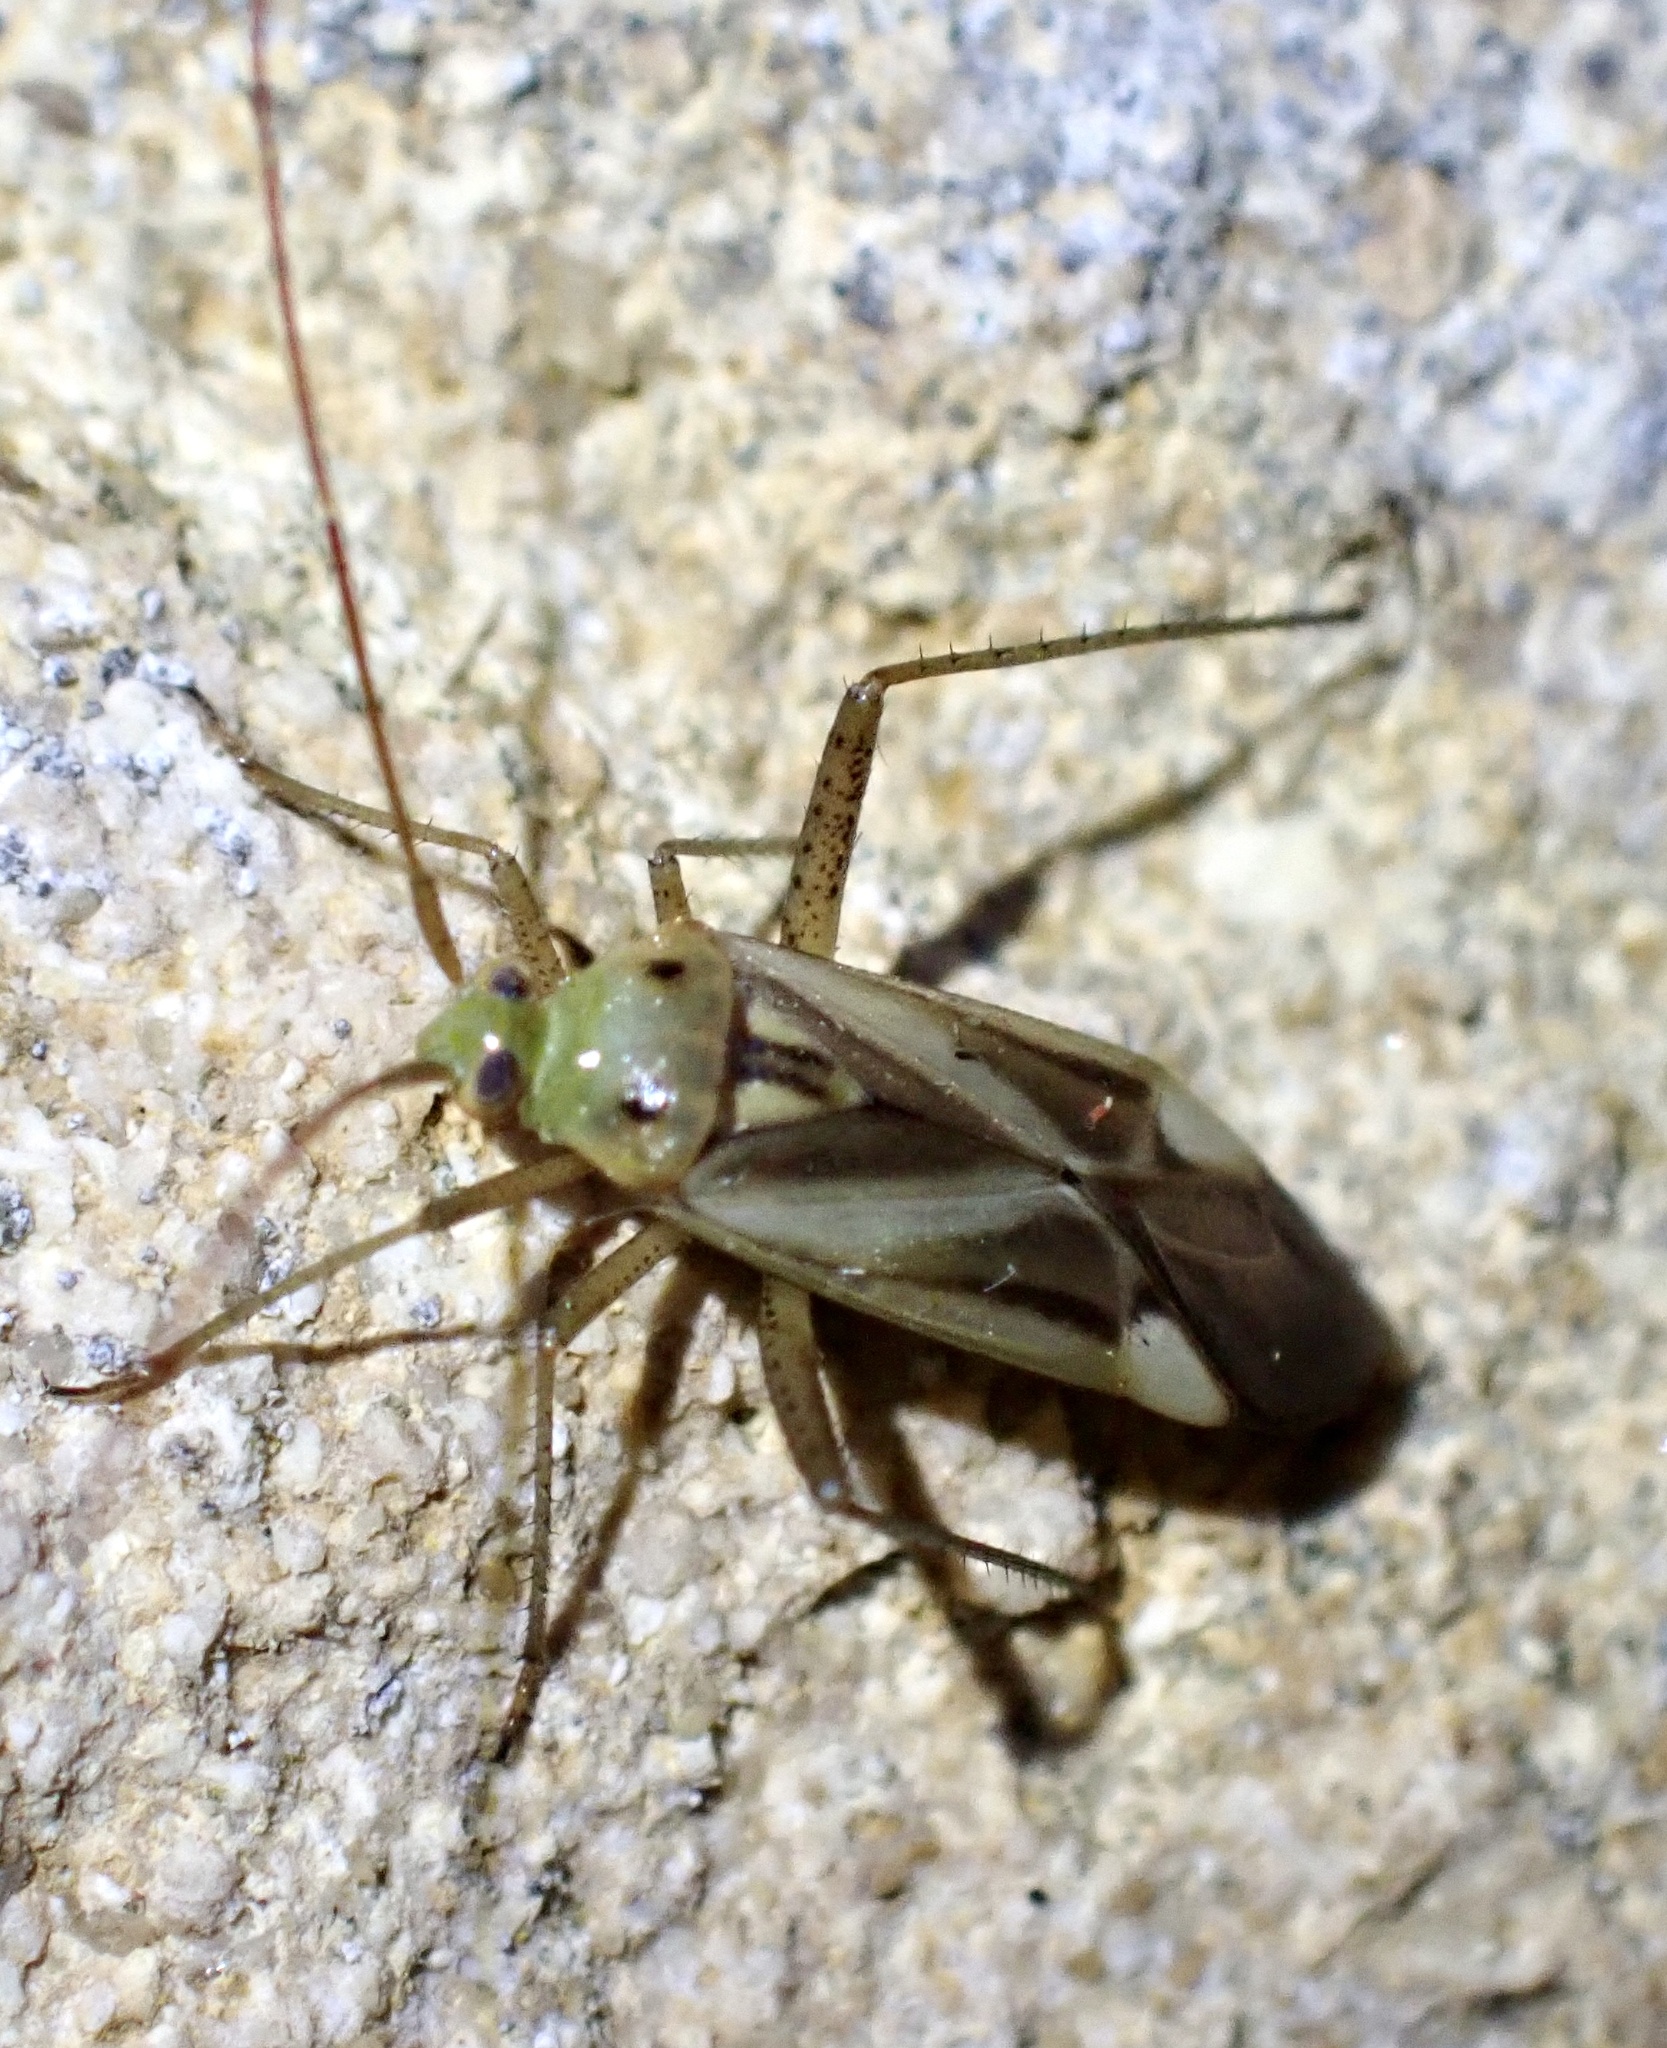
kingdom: Animalia
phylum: Arthropoda
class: Insecta
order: Hemiptera
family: Miridae
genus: Adelphocoris
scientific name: Adelphocoris lineolatus
